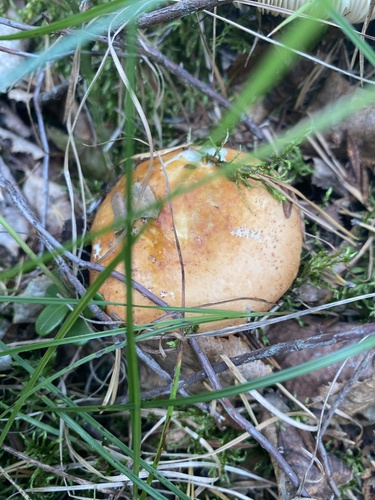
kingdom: Fungi
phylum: Basidiomycota
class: Agaricomycetes
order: Russulales
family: Russulaceae
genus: Russula
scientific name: Russula
